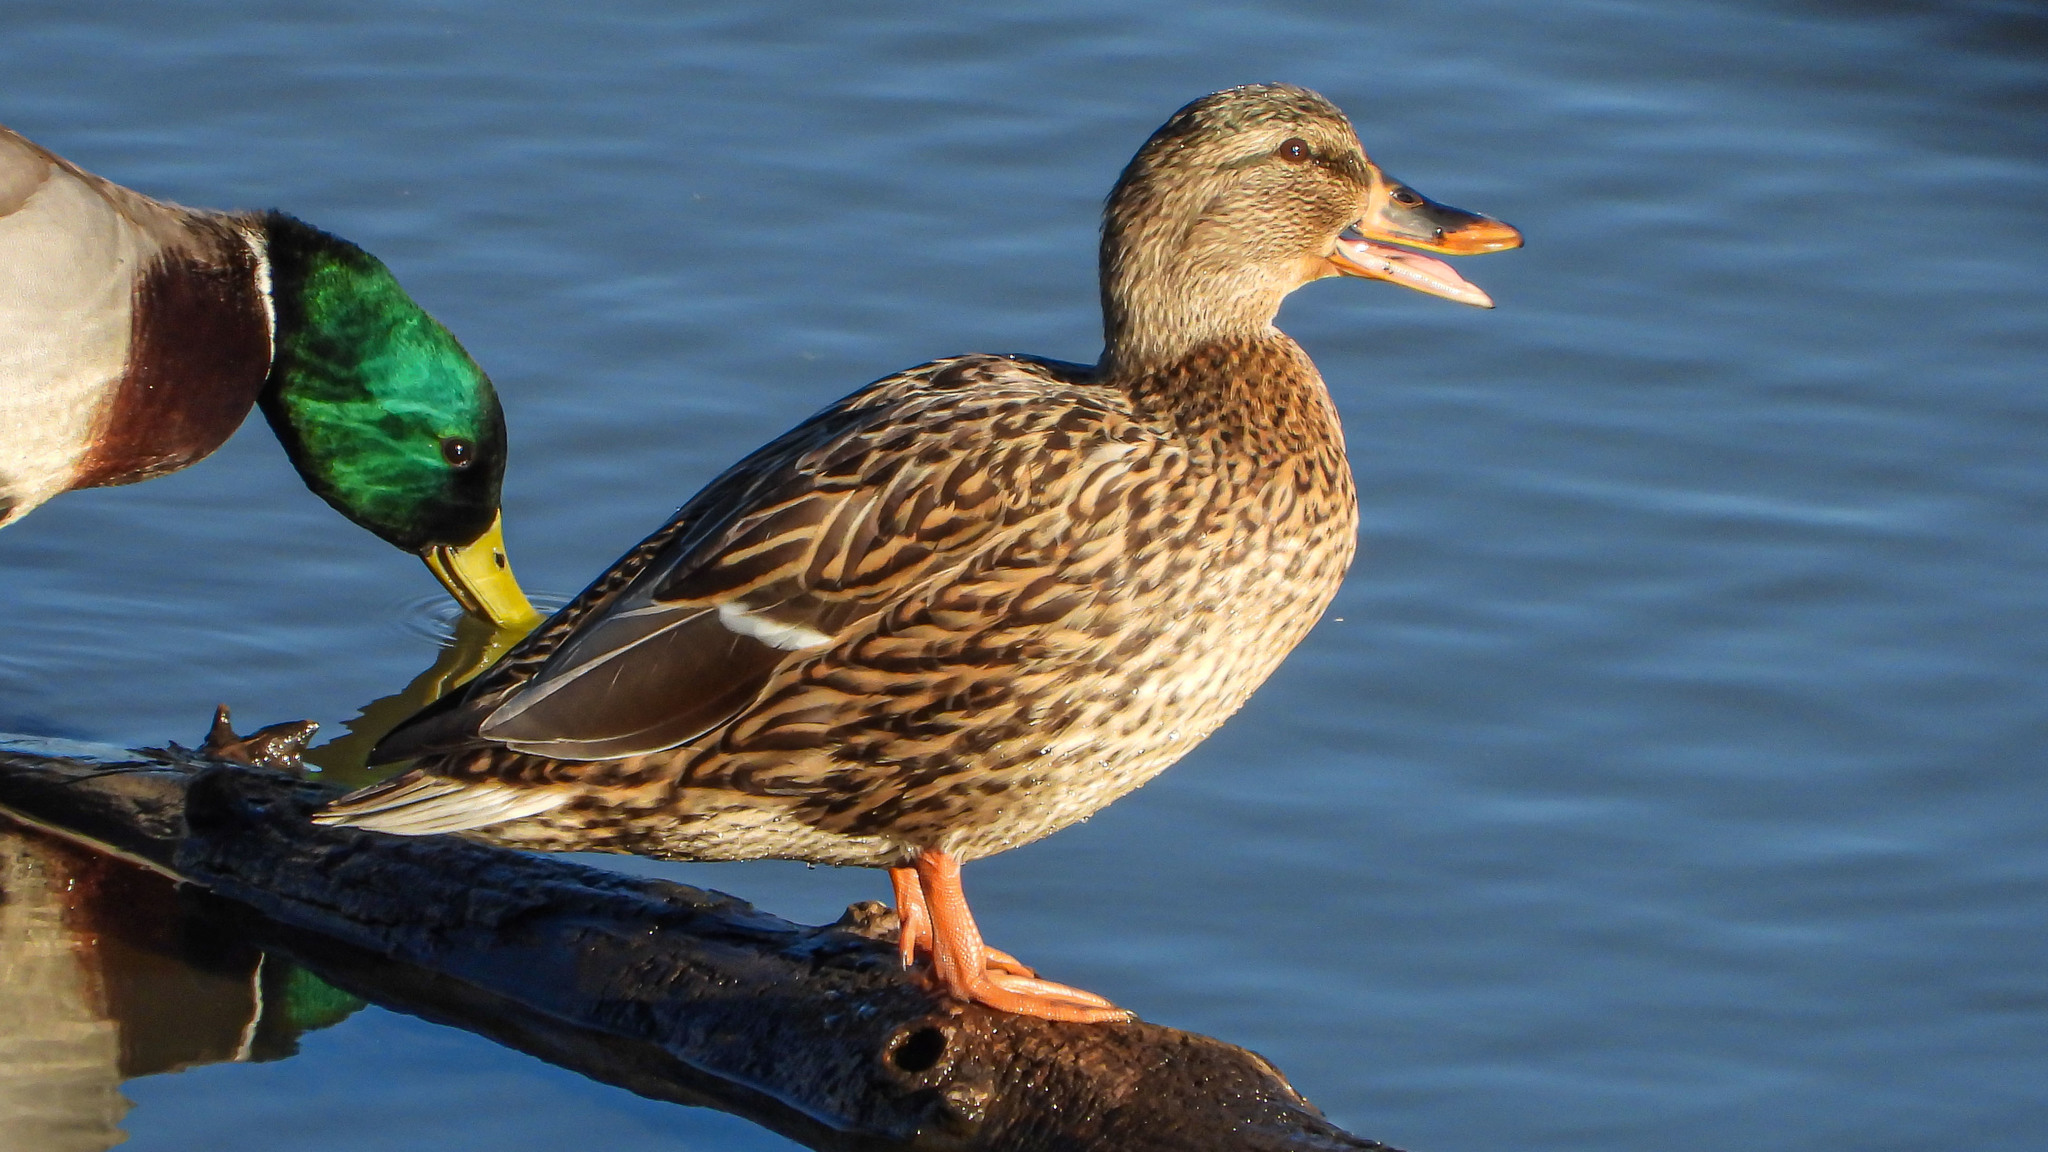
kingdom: Animalia
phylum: Chordata
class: Aves
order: Anseriformes
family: Anatidae
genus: Anas
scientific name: Anas platyrhynchos
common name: Mallard
